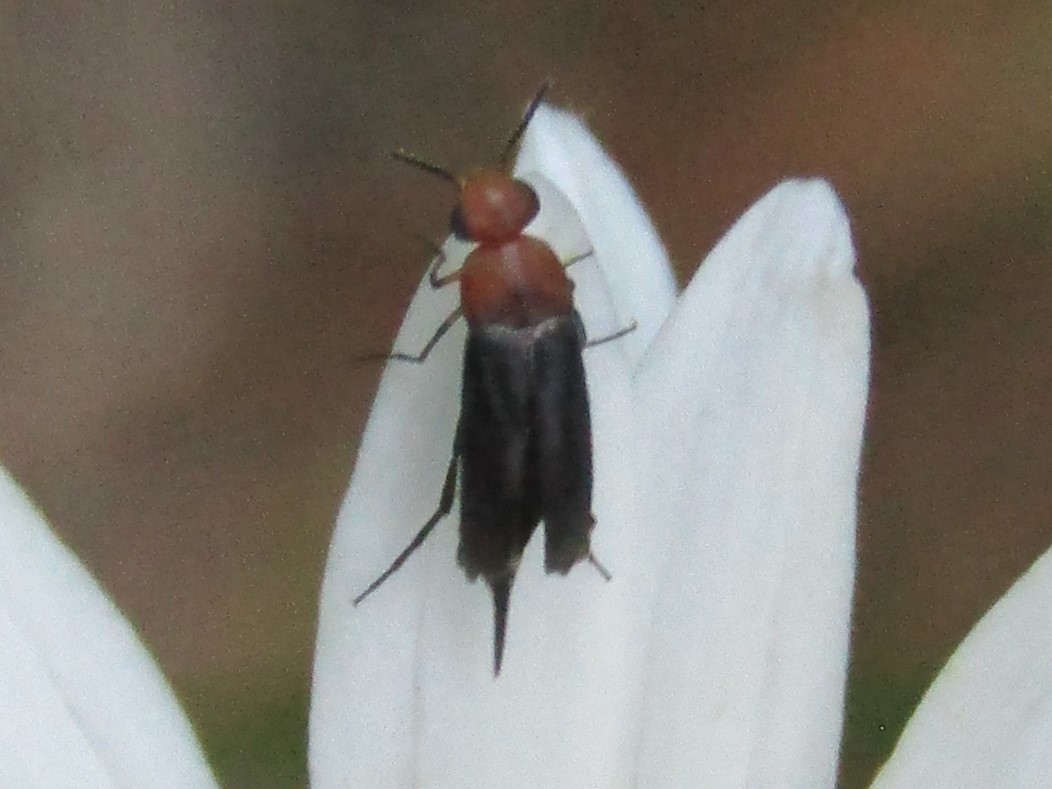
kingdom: Animalia
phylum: Arthropoda
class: Insecta
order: Coleoptera
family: Mordellidae
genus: Mordellistena
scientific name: Mordellistena cervicalis
